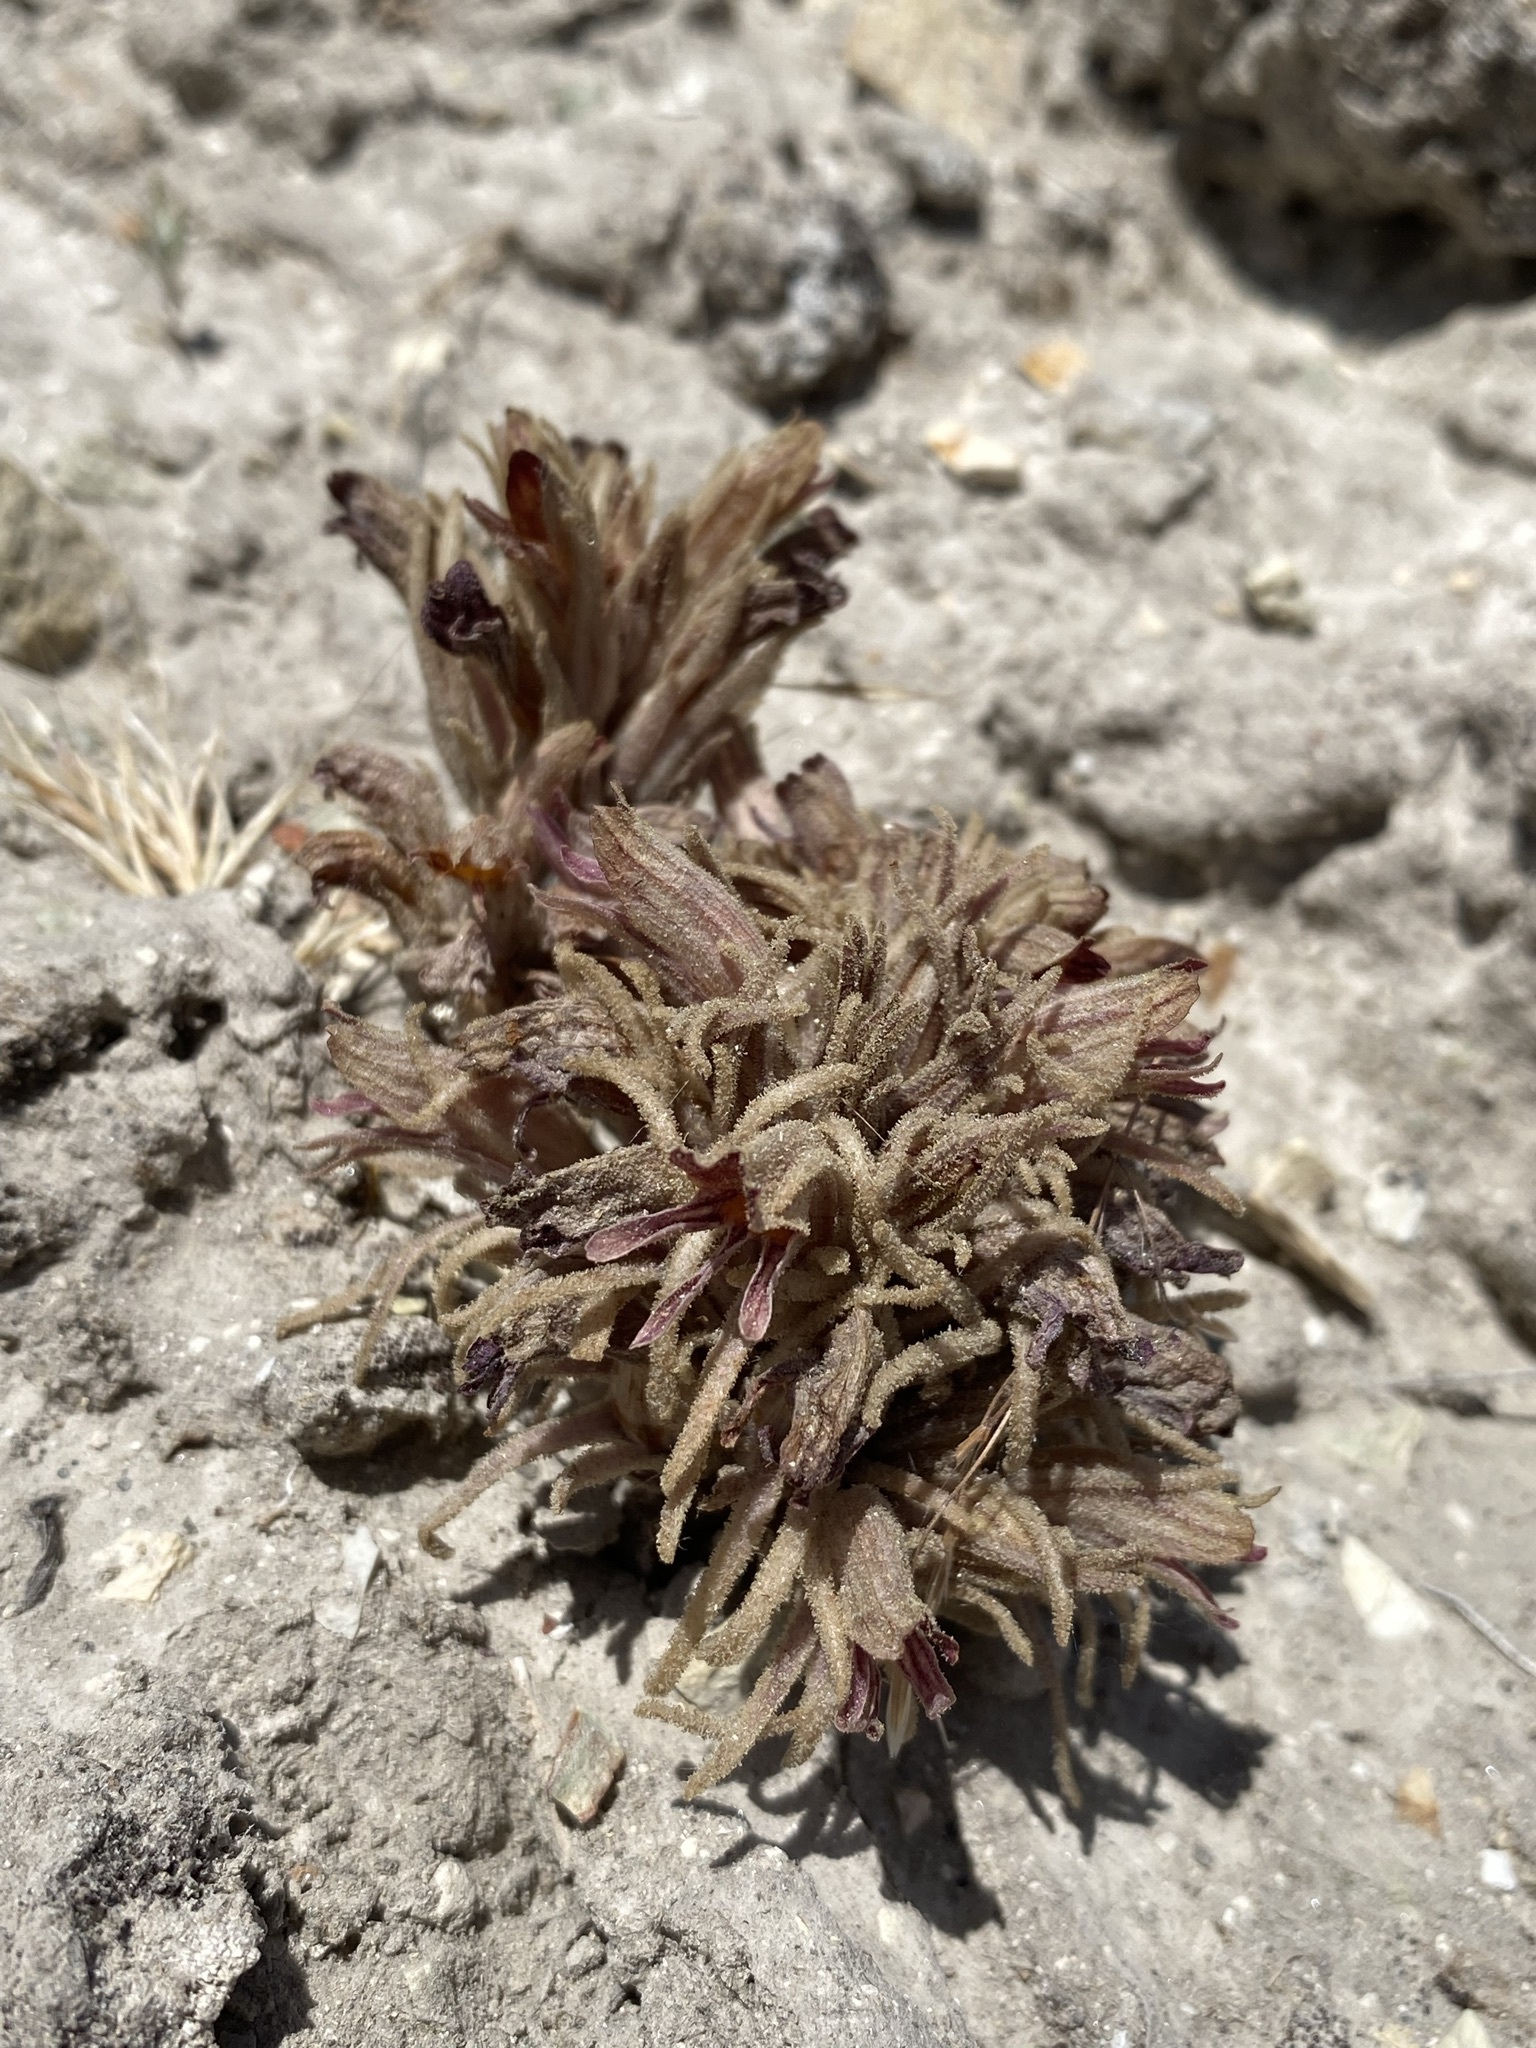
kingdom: Plantae
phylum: Tracheophyta
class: Magnoliopsida
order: Lamiales
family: Orobanchaceae
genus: Aphyllon
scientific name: Aphyllon corymbosum
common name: Flat-top broomrape
